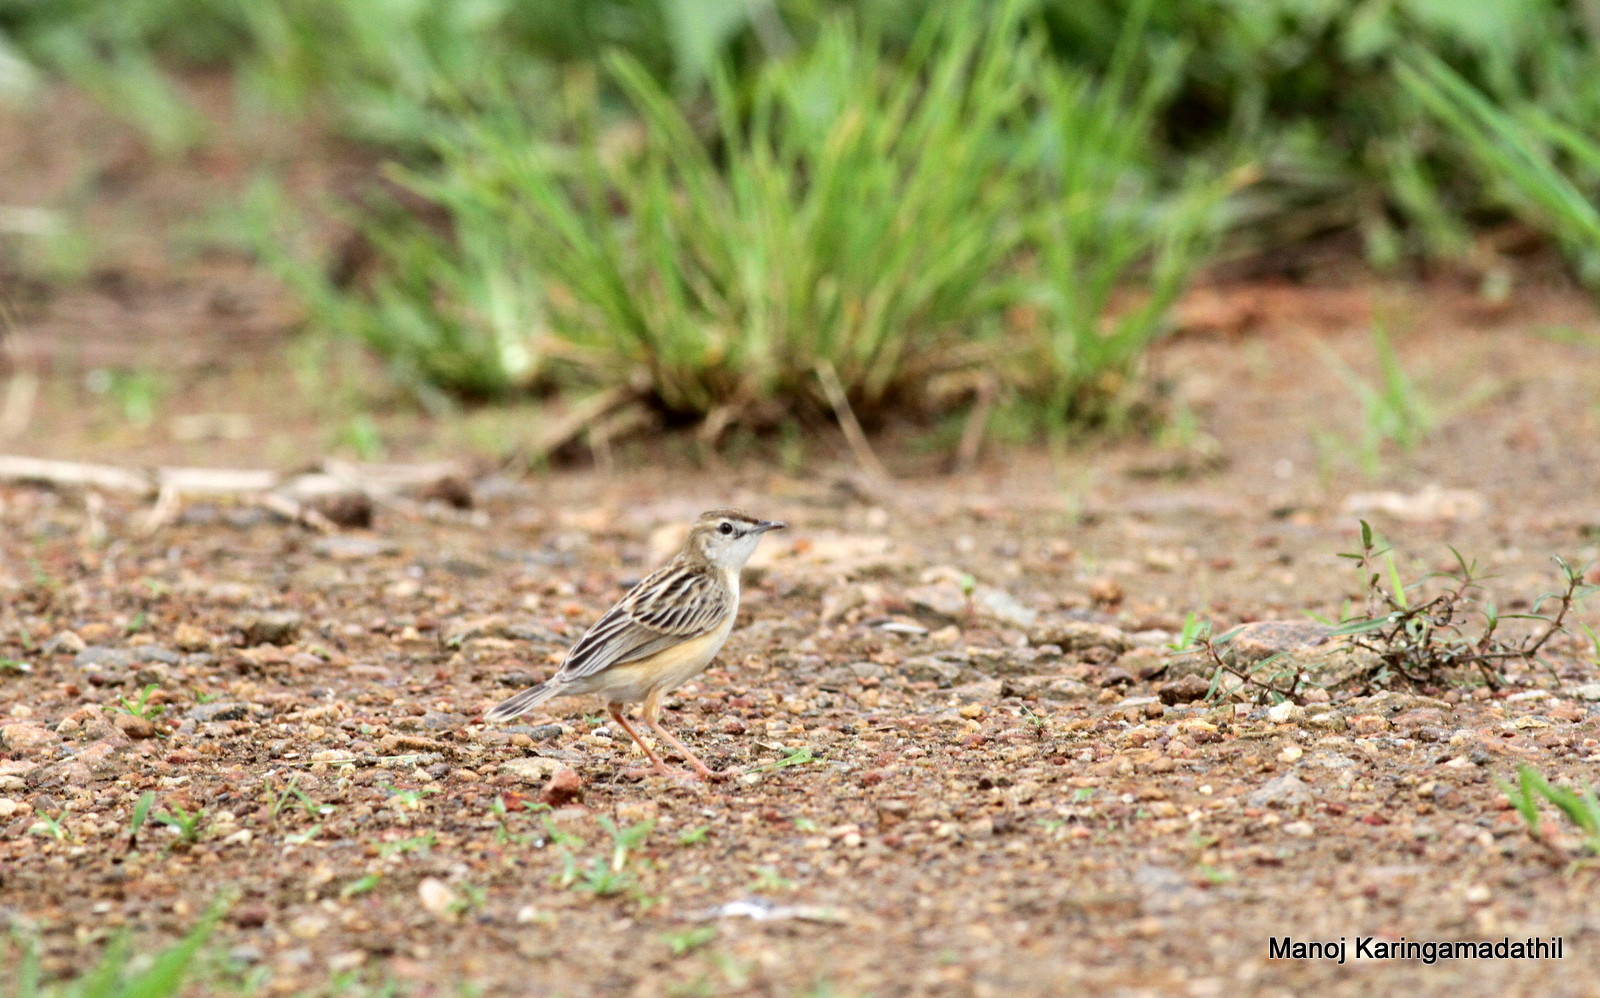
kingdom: Animalia
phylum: Chordata
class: Aves
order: Passeriformes
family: Cisticolidae
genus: Cisticola
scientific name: Cisticola juncidis
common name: Zitting cisticola
